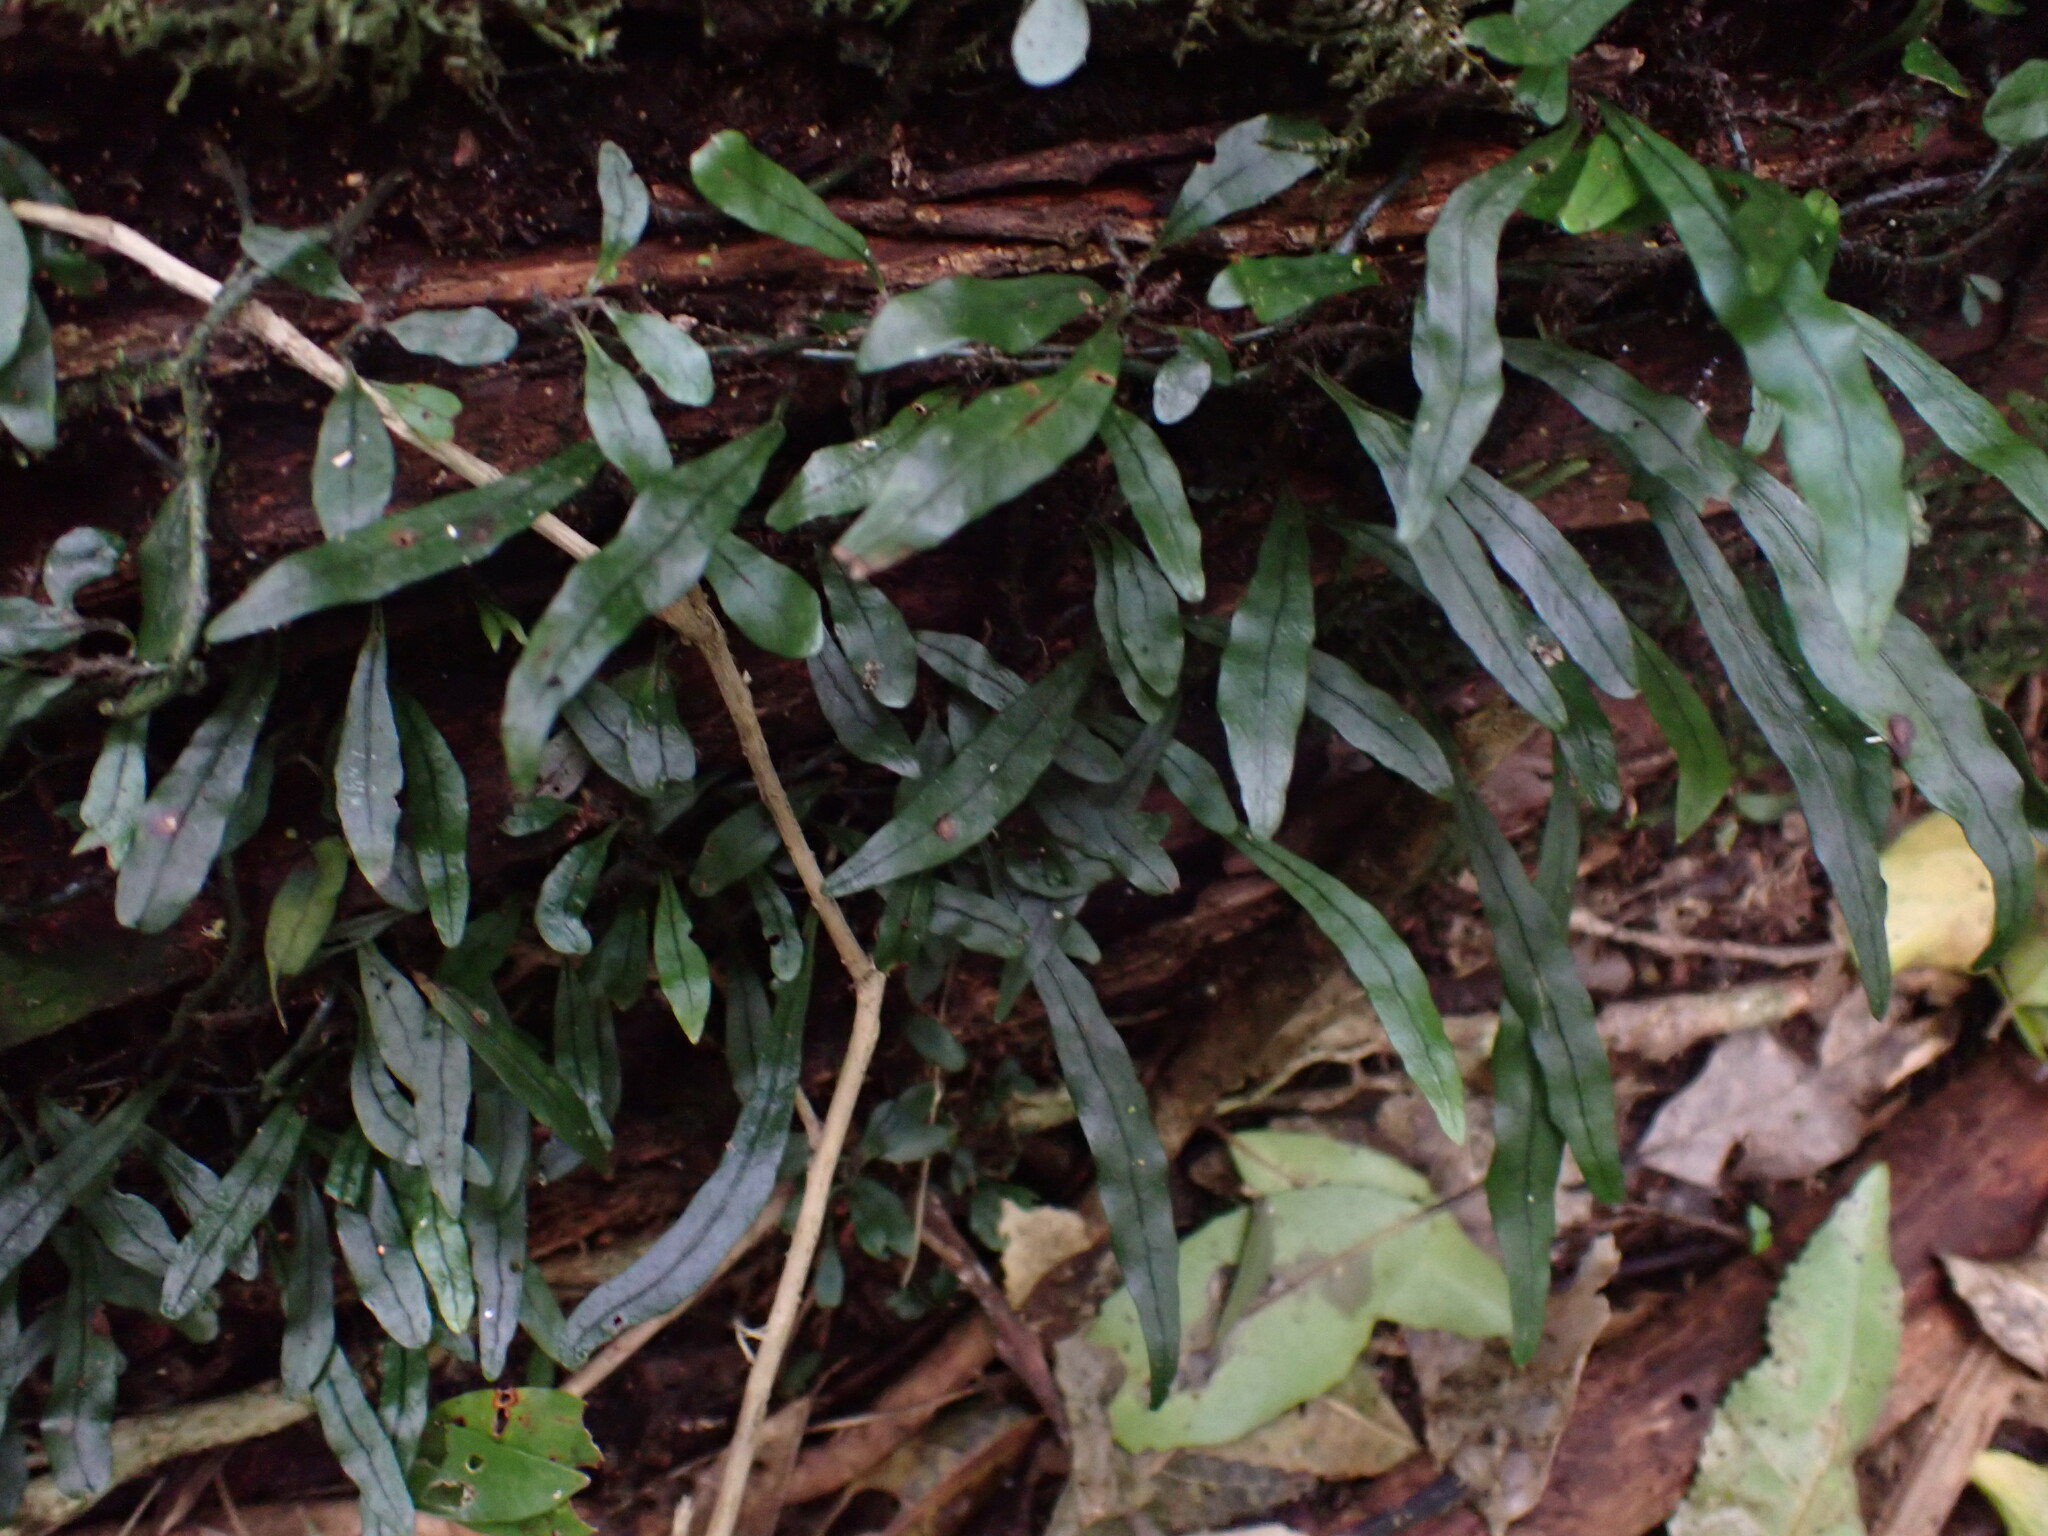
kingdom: Plantae
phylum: Tracheophyta
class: Polypodiopsida
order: Polypodiales
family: Polypodiaceae
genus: Lecanopteris
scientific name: Lecanopteris scandens
